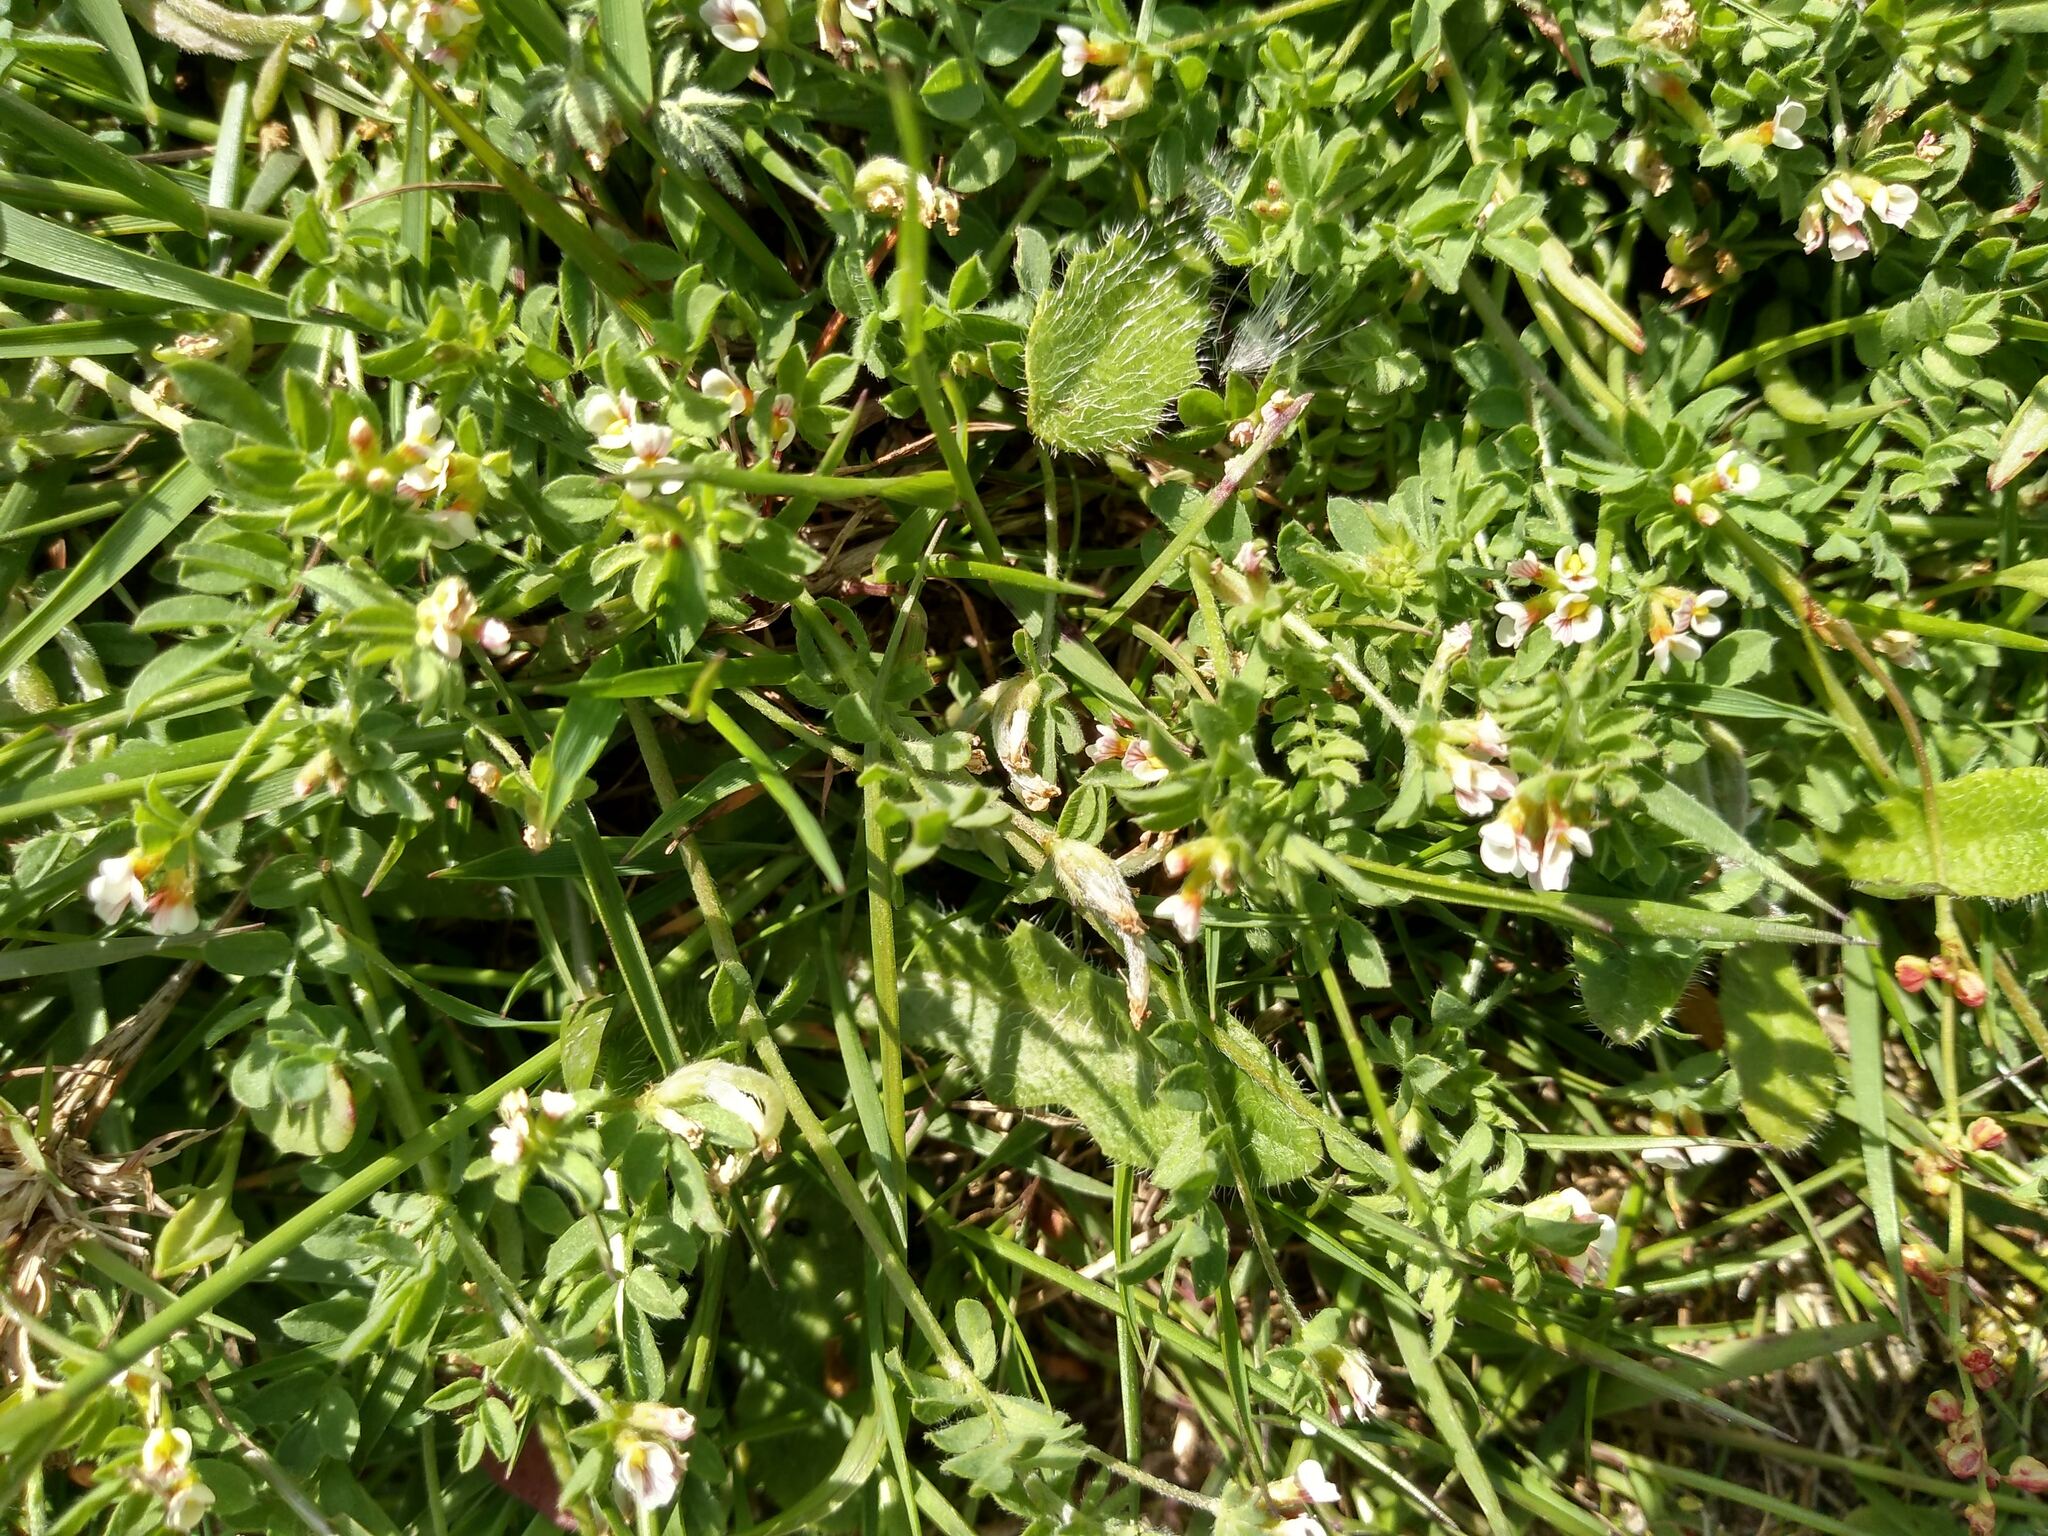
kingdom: Plantae
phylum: Tracheophyta
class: Magnoliopsida
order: Fabales
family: Fabaceae
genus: Ornithopus
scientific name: Ornithopus perpusillus
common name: Bird's-foot
